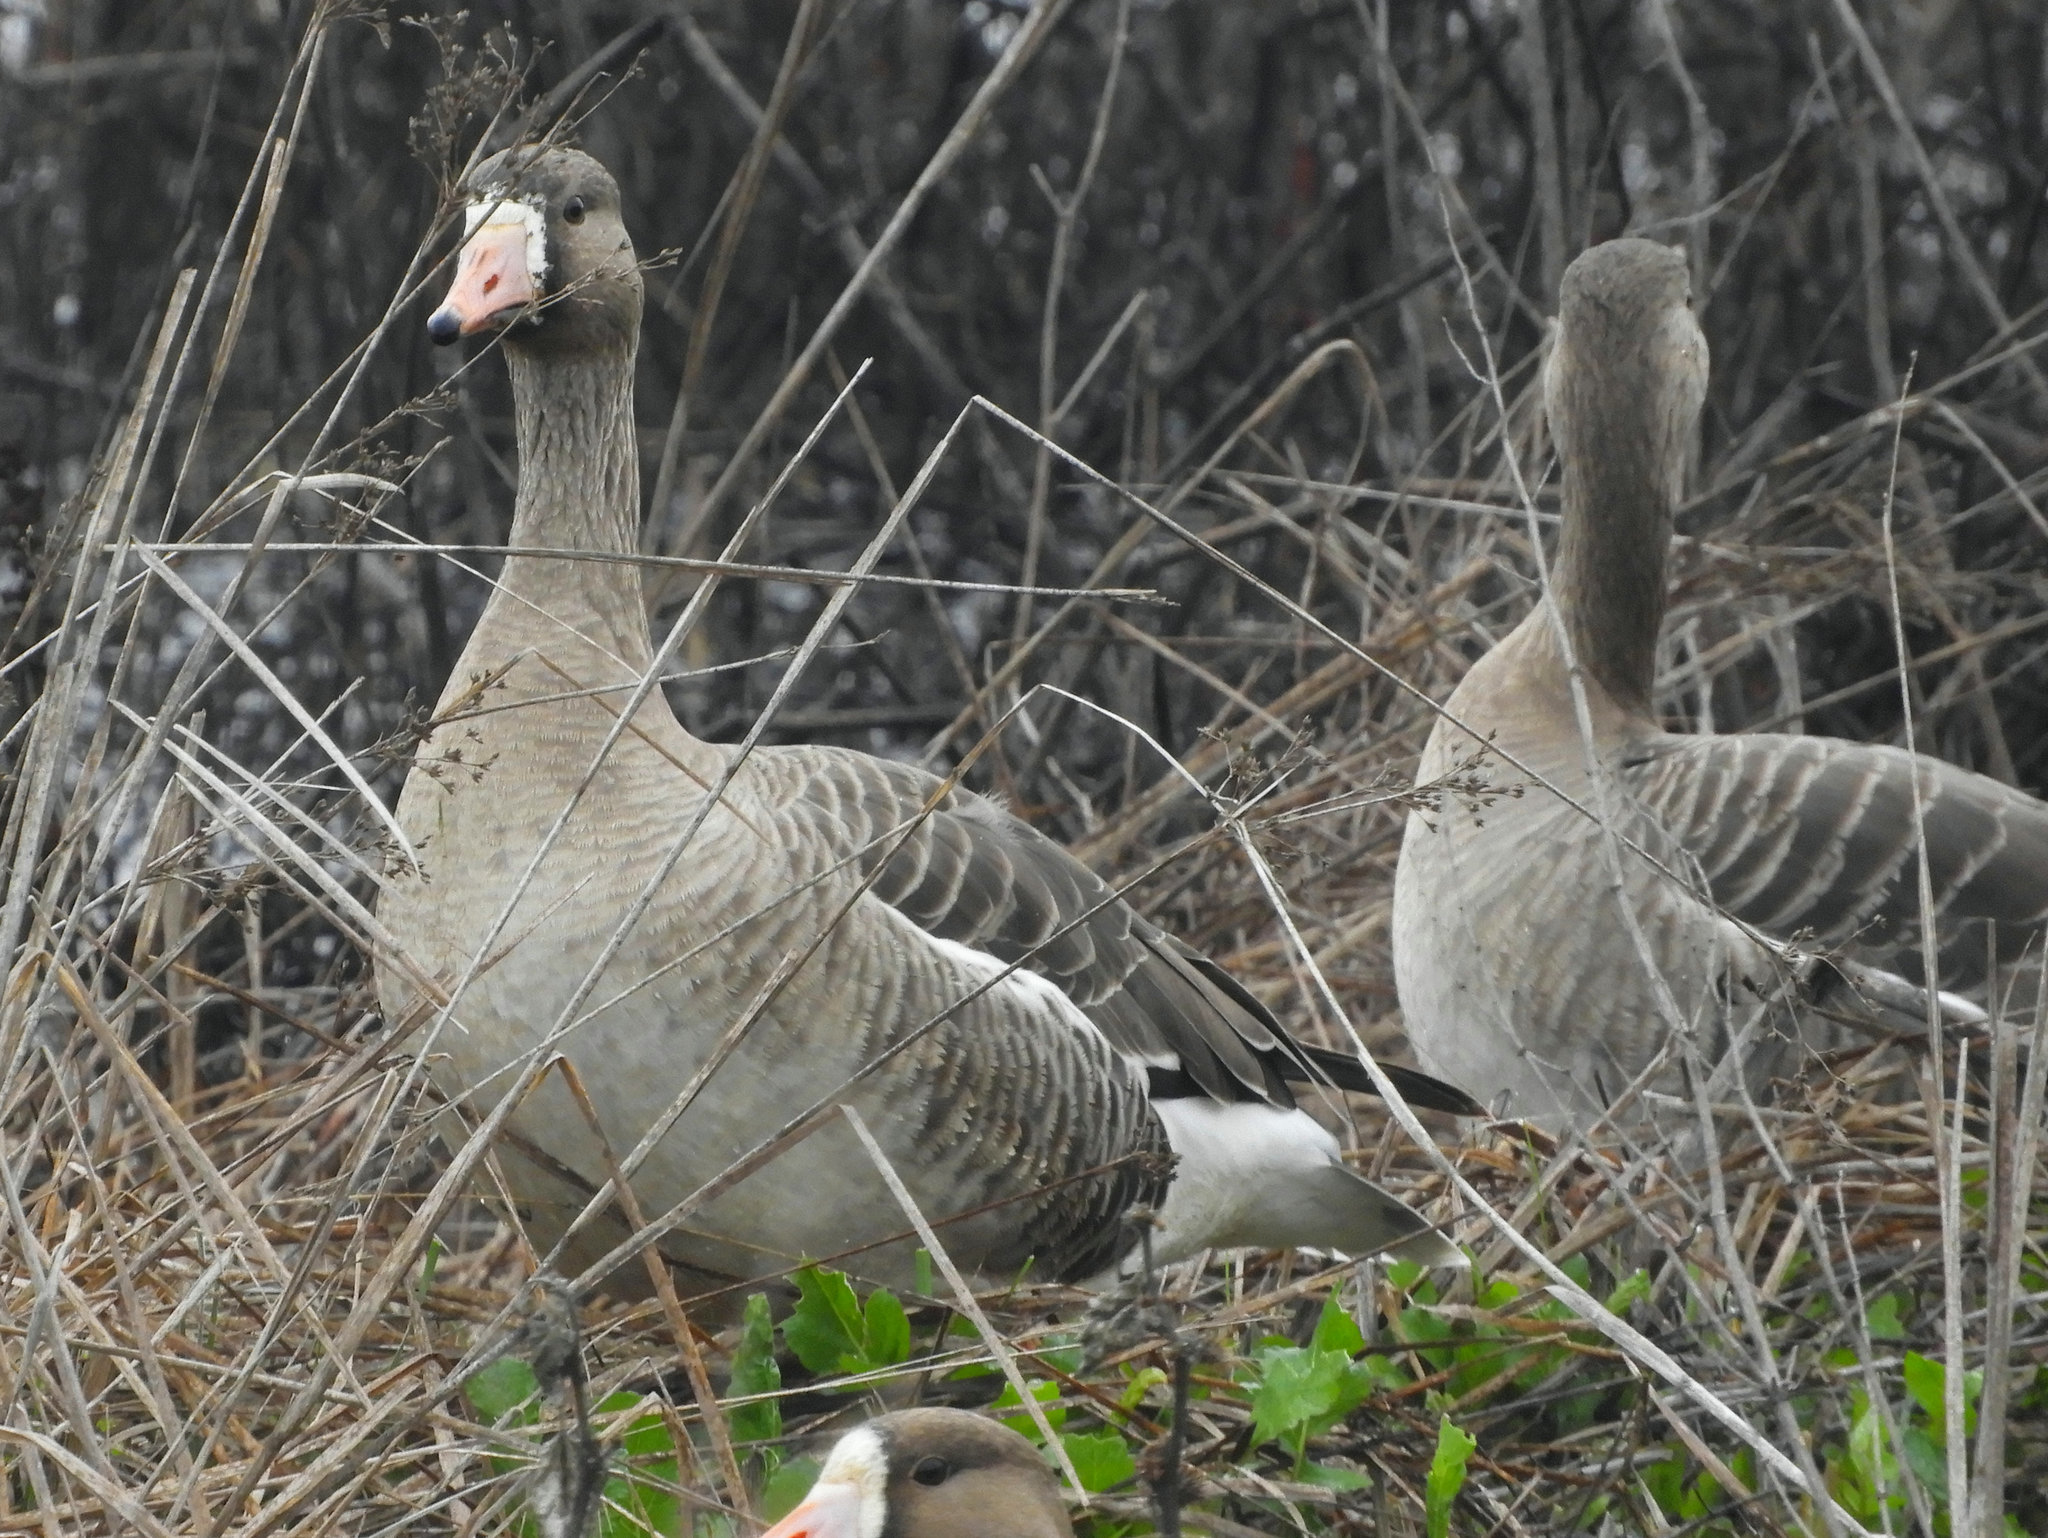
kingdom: Animalia
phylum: Chordata
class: Aves
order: Anseriformes
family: Anatidae
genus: Anser
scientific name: Anser albifrons
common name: Greater white-fronted goose
